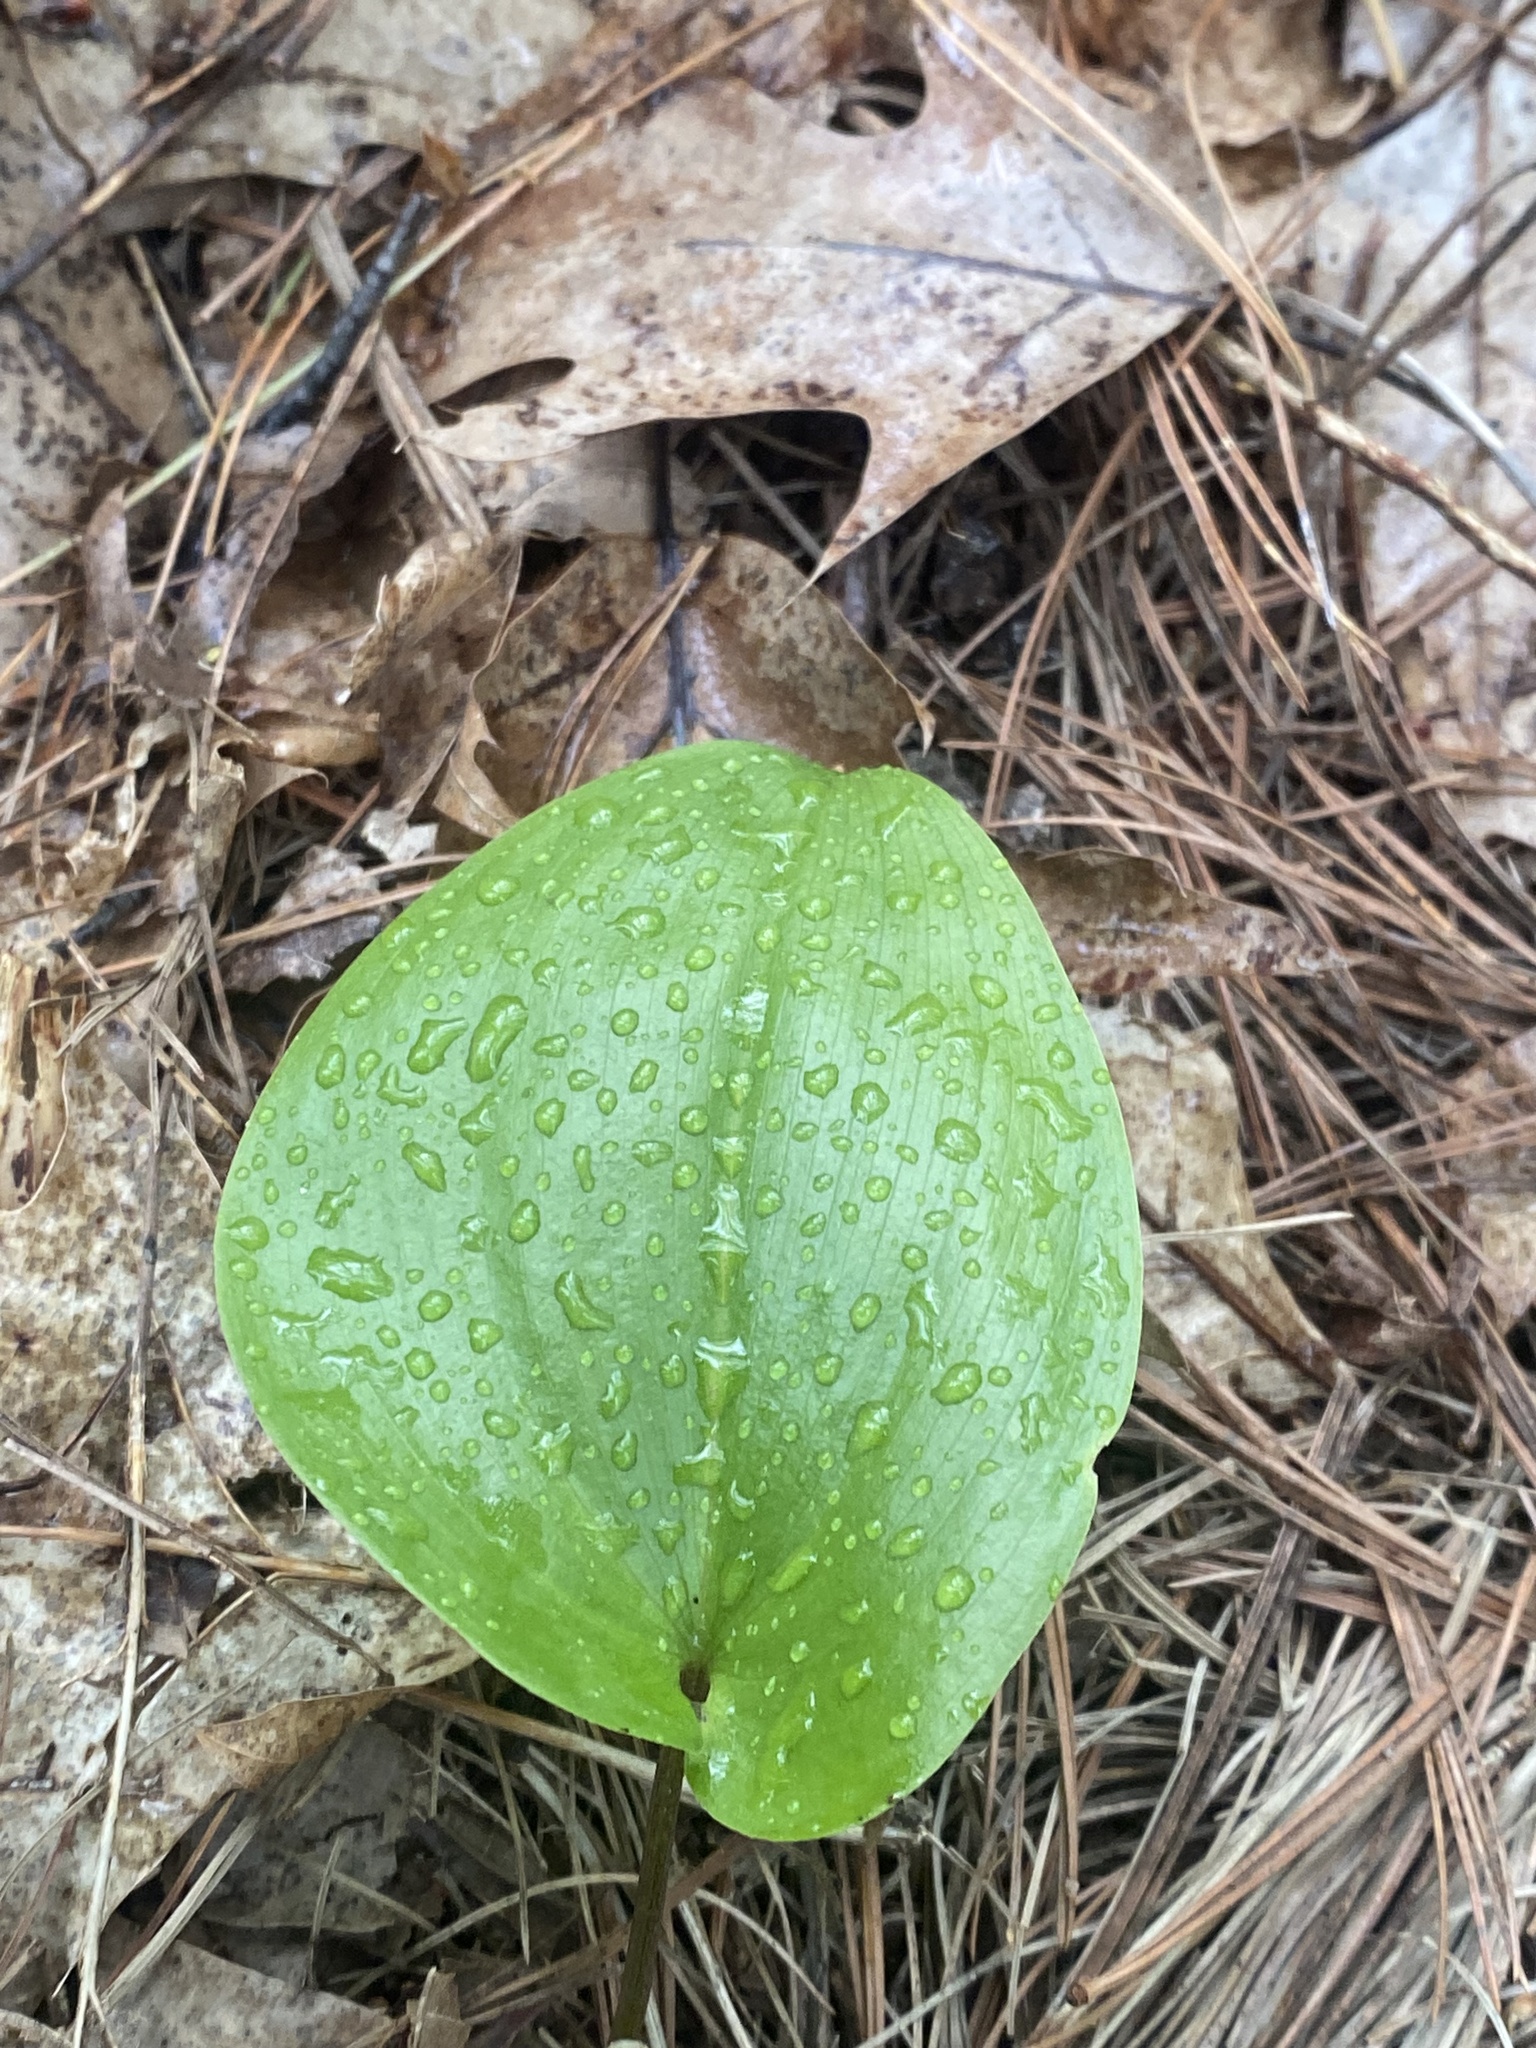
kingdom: Plantae
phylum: Tracheophyta
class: Liliopsida
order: Asparagales
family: Asparagaceae
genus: Maianthemum
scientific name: Maianthemum canadense
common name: False lily-of-the-valley
